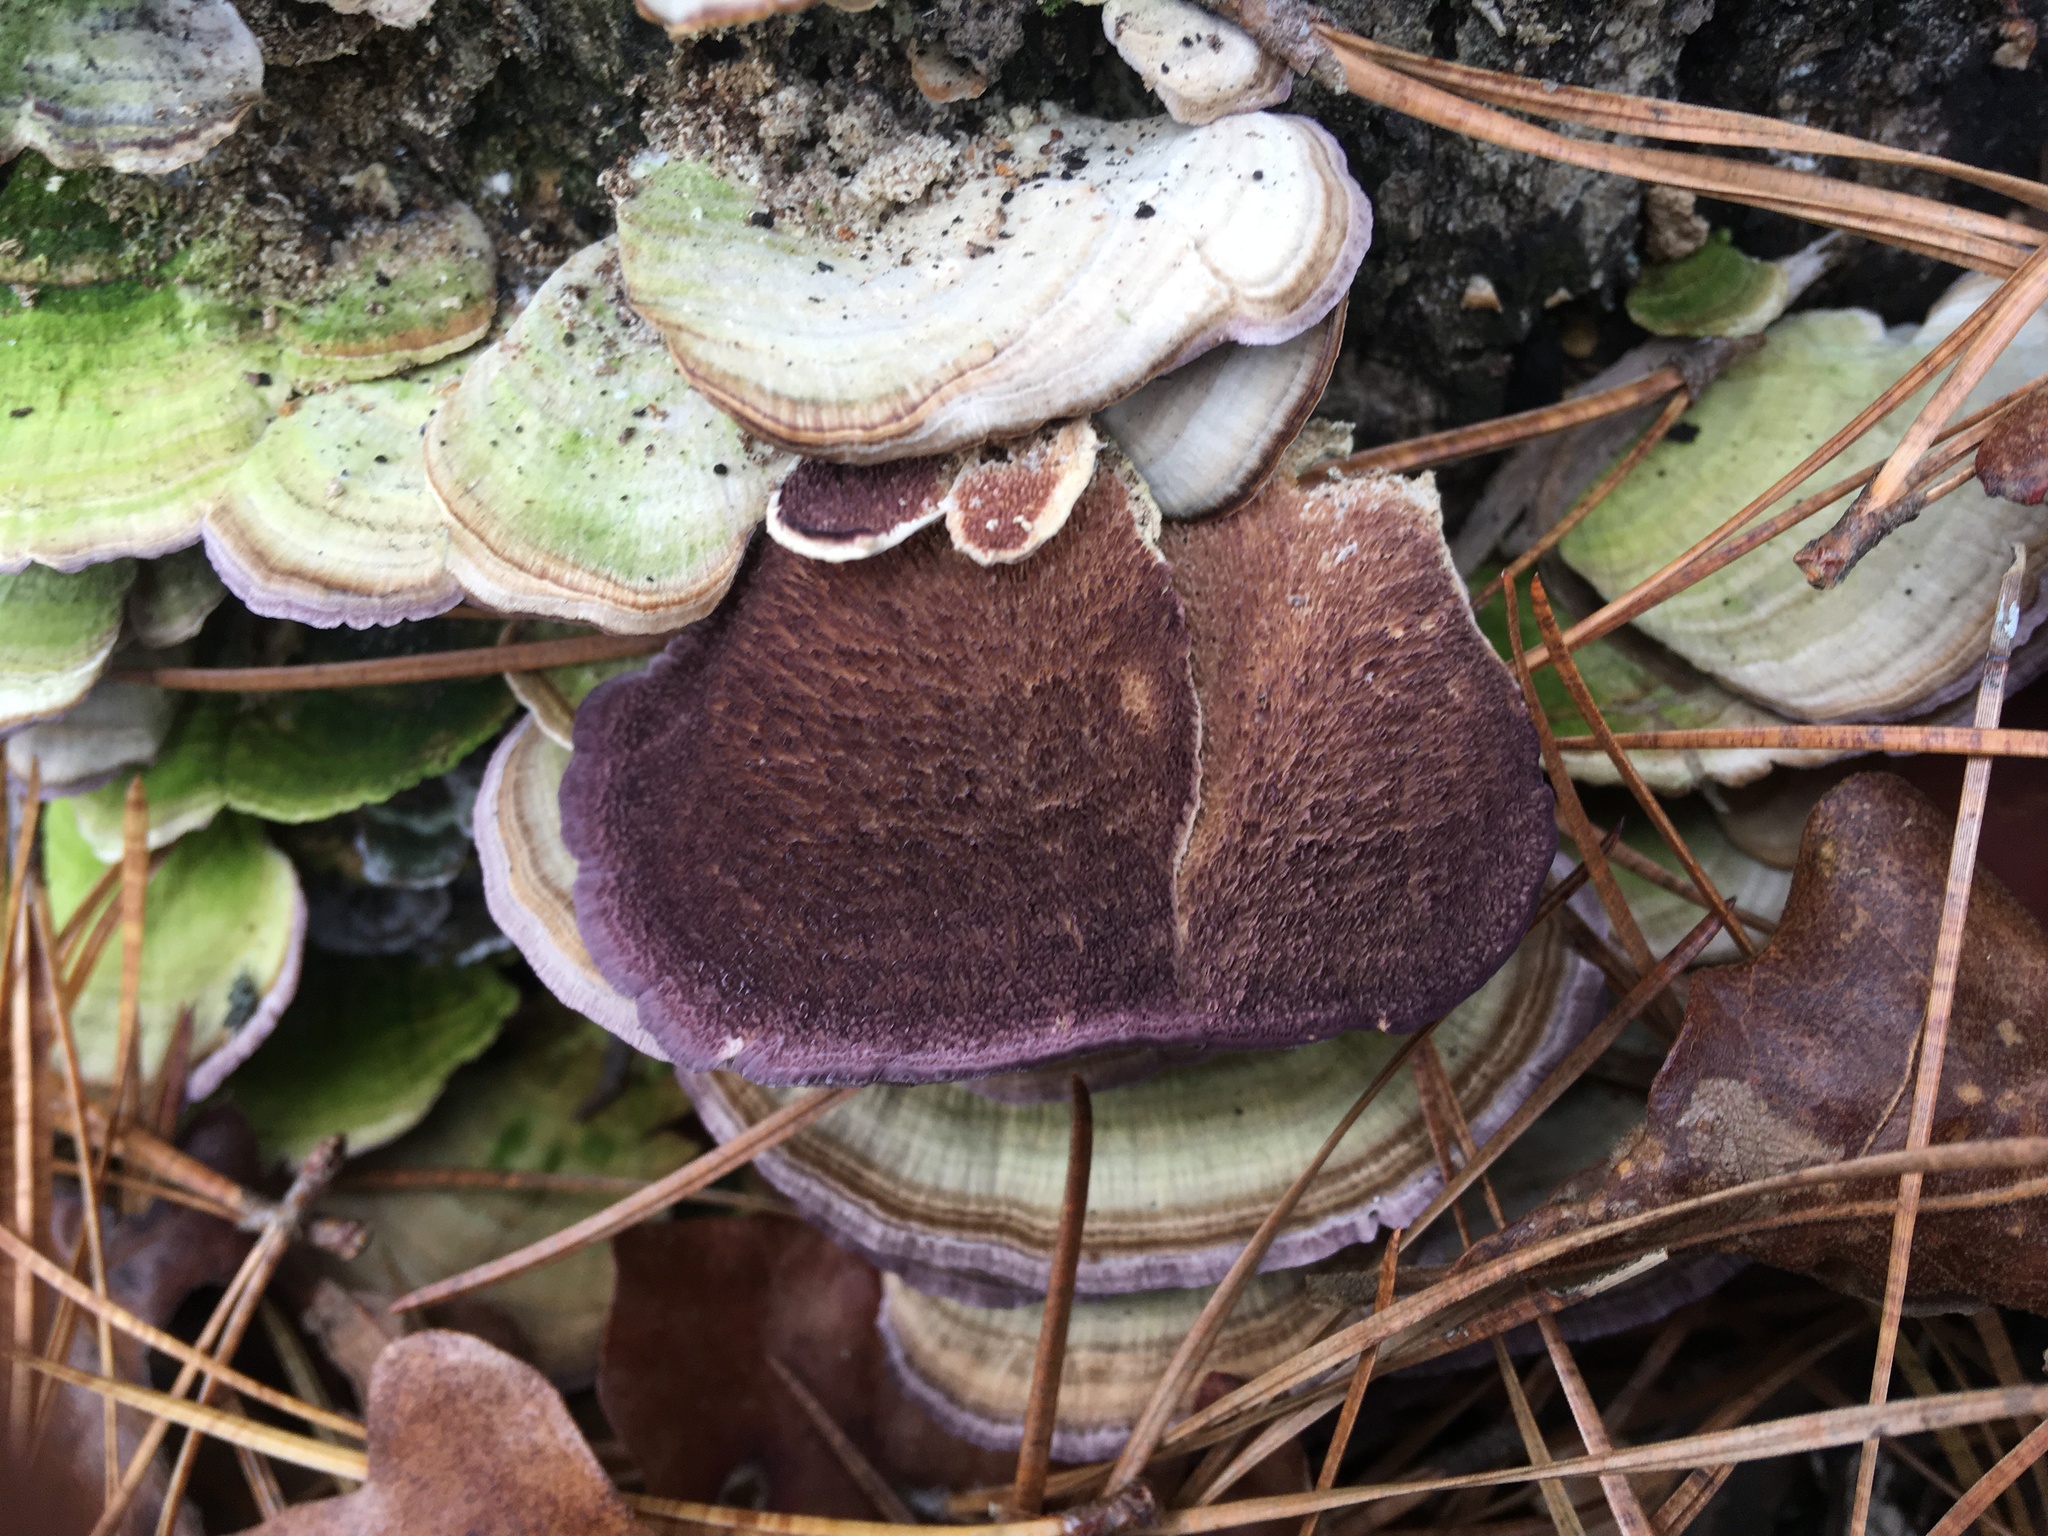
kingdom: Fungi
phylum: Basidiomycota
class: Agaricomycetes
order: Hymenochaetales
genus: Trichaptum
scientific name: Trichaptum abietinum
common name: Purplepore bracket
